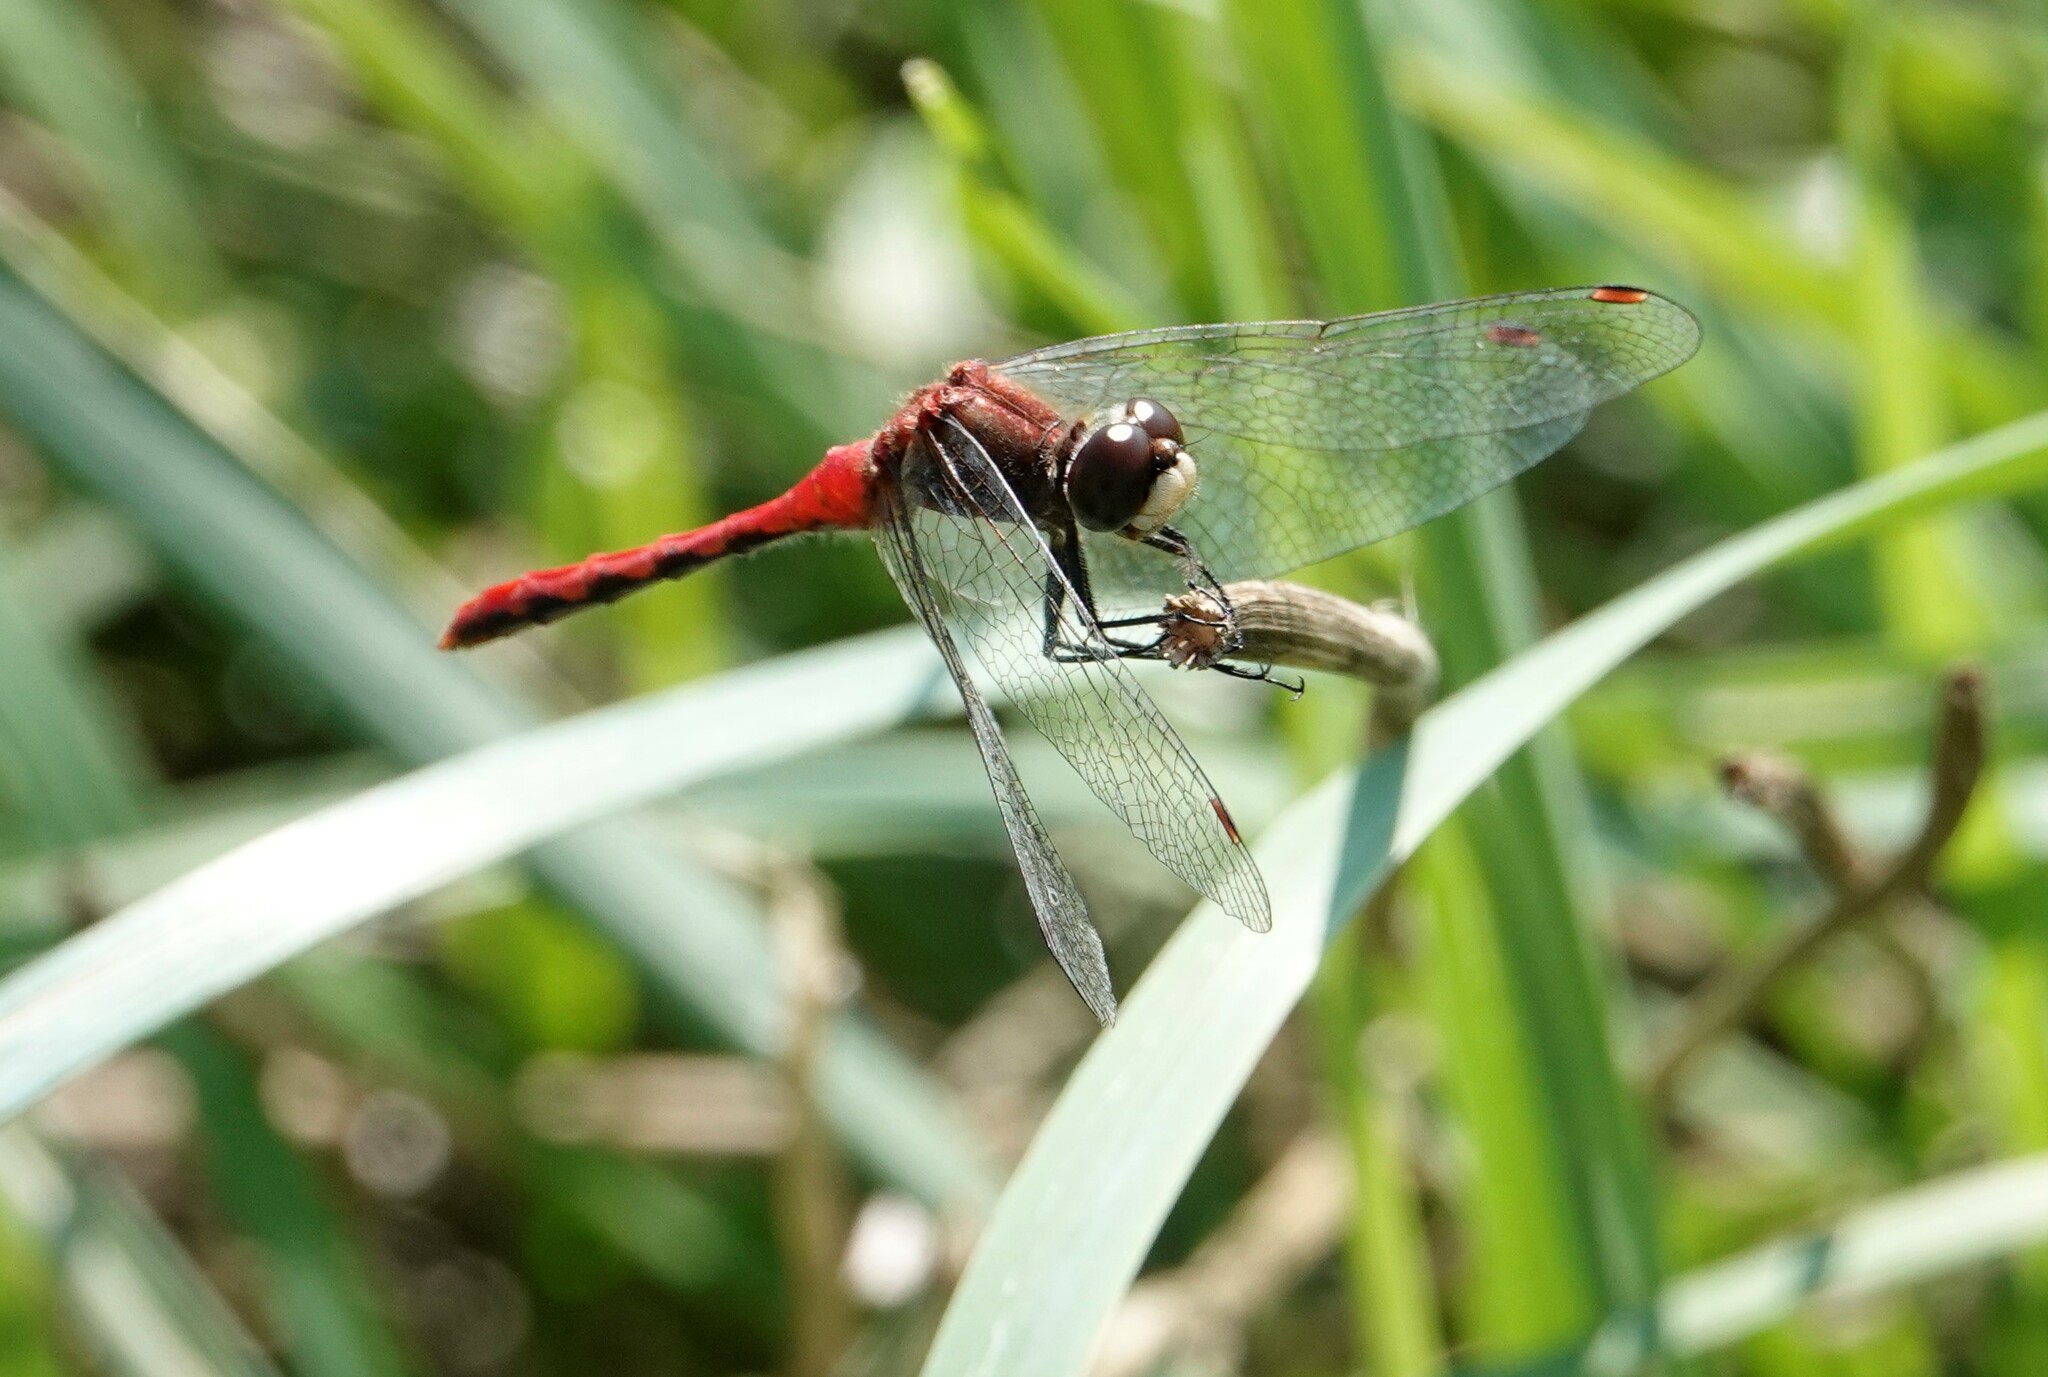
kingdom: Animalia
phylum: Arthropoda
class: Insecta
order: Odonata
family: Libellulidae
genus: Sympetrum
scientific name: Sympetrum obtrusum
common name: White-faced meadowhawk
